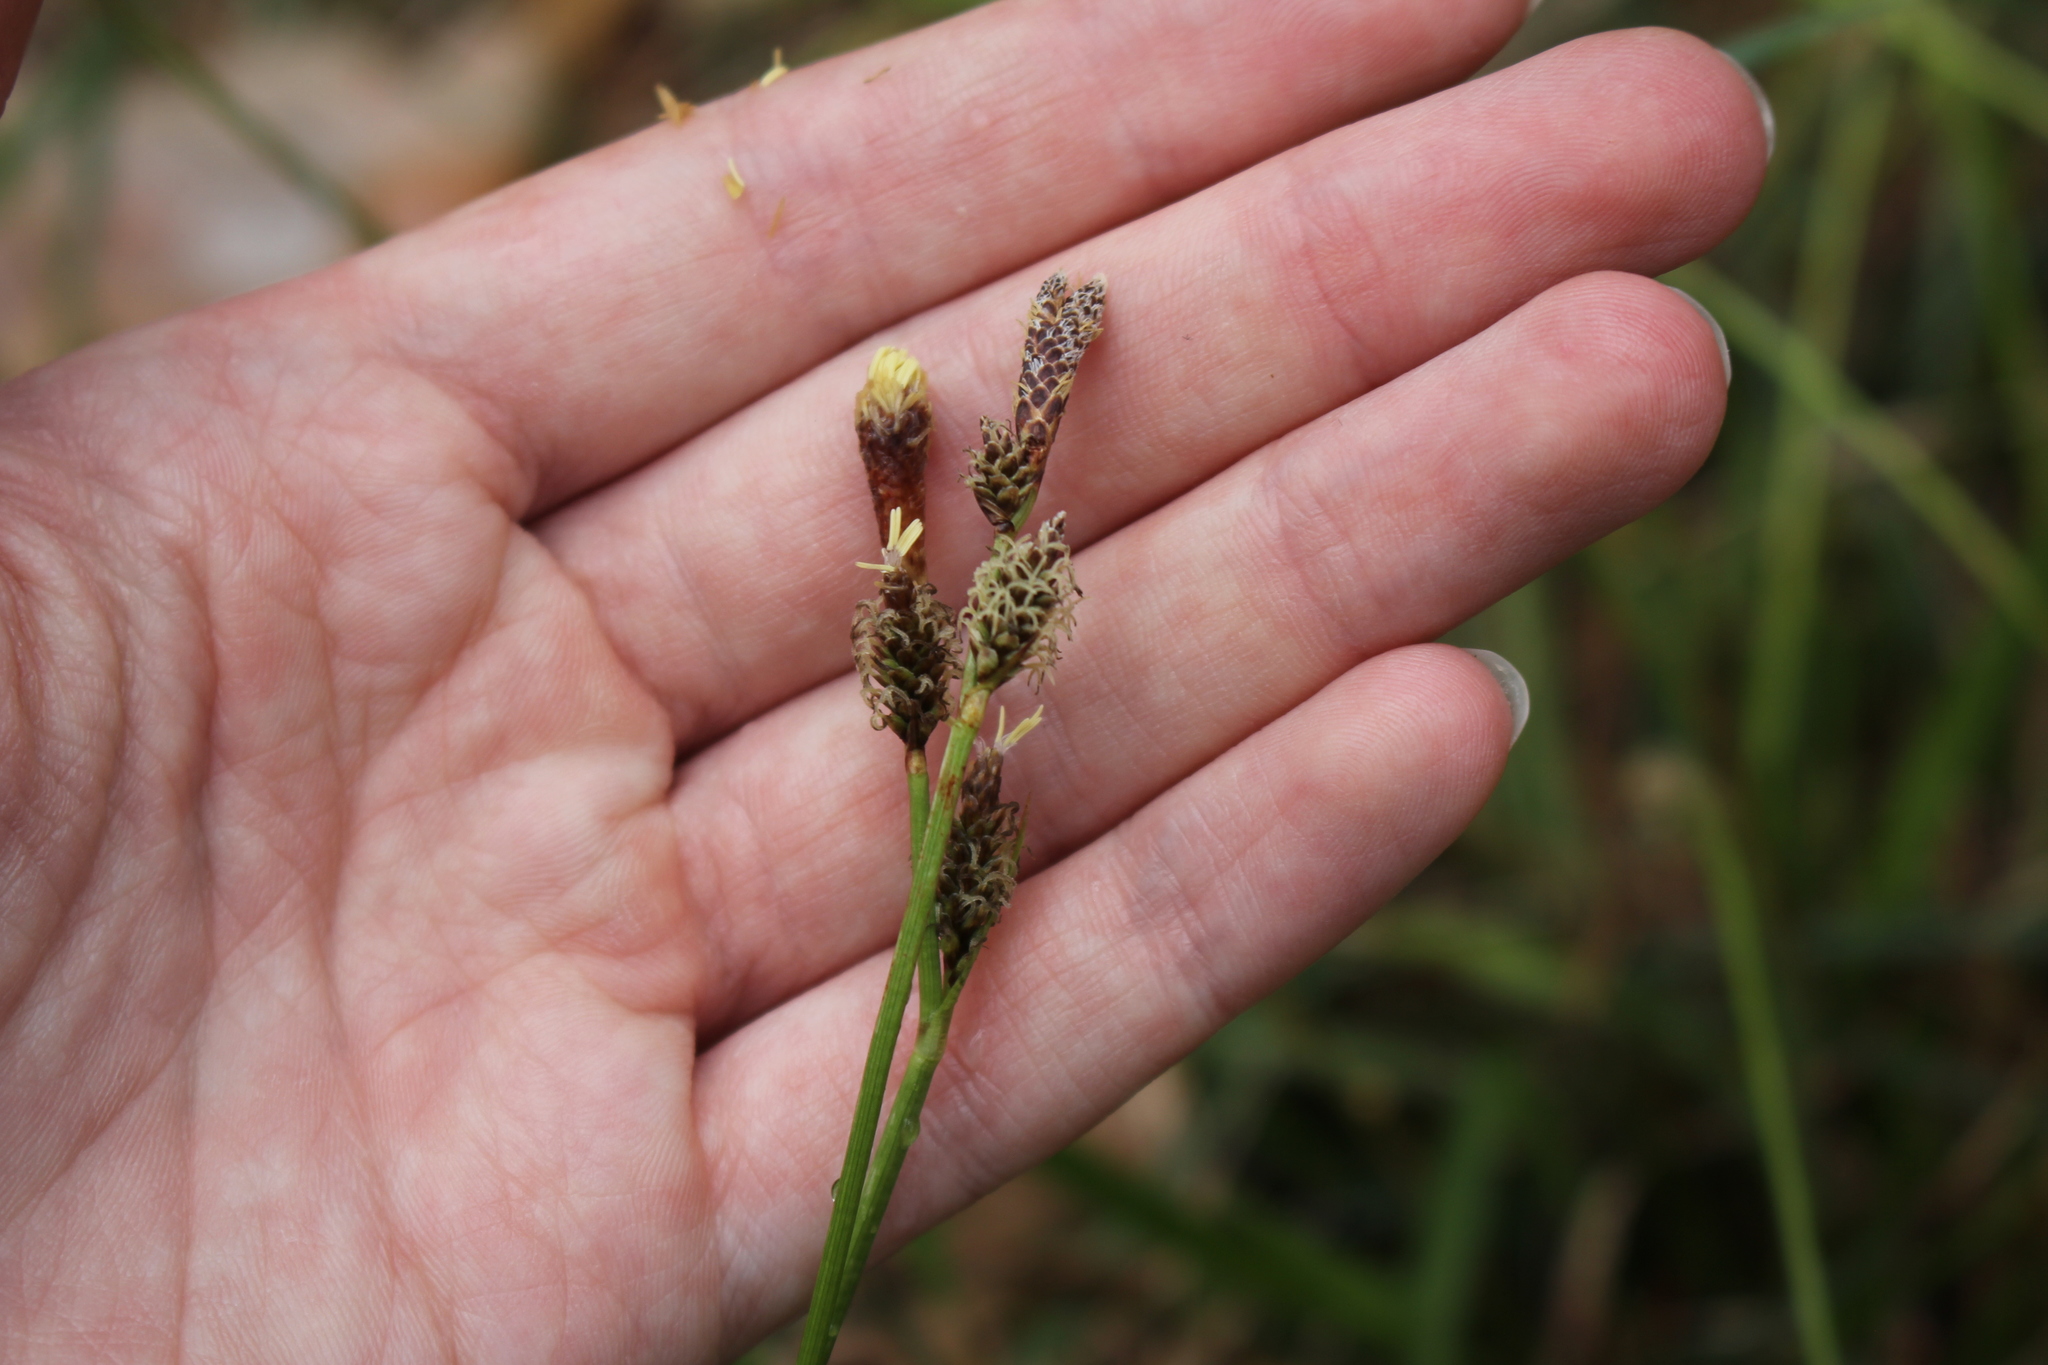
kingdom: Plantae
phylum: Tracheophyta
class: Liliopsida
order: Poales
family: Cyperaceae
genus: Carex
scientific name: Carex ericetorum
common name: Rare spring-sedge
